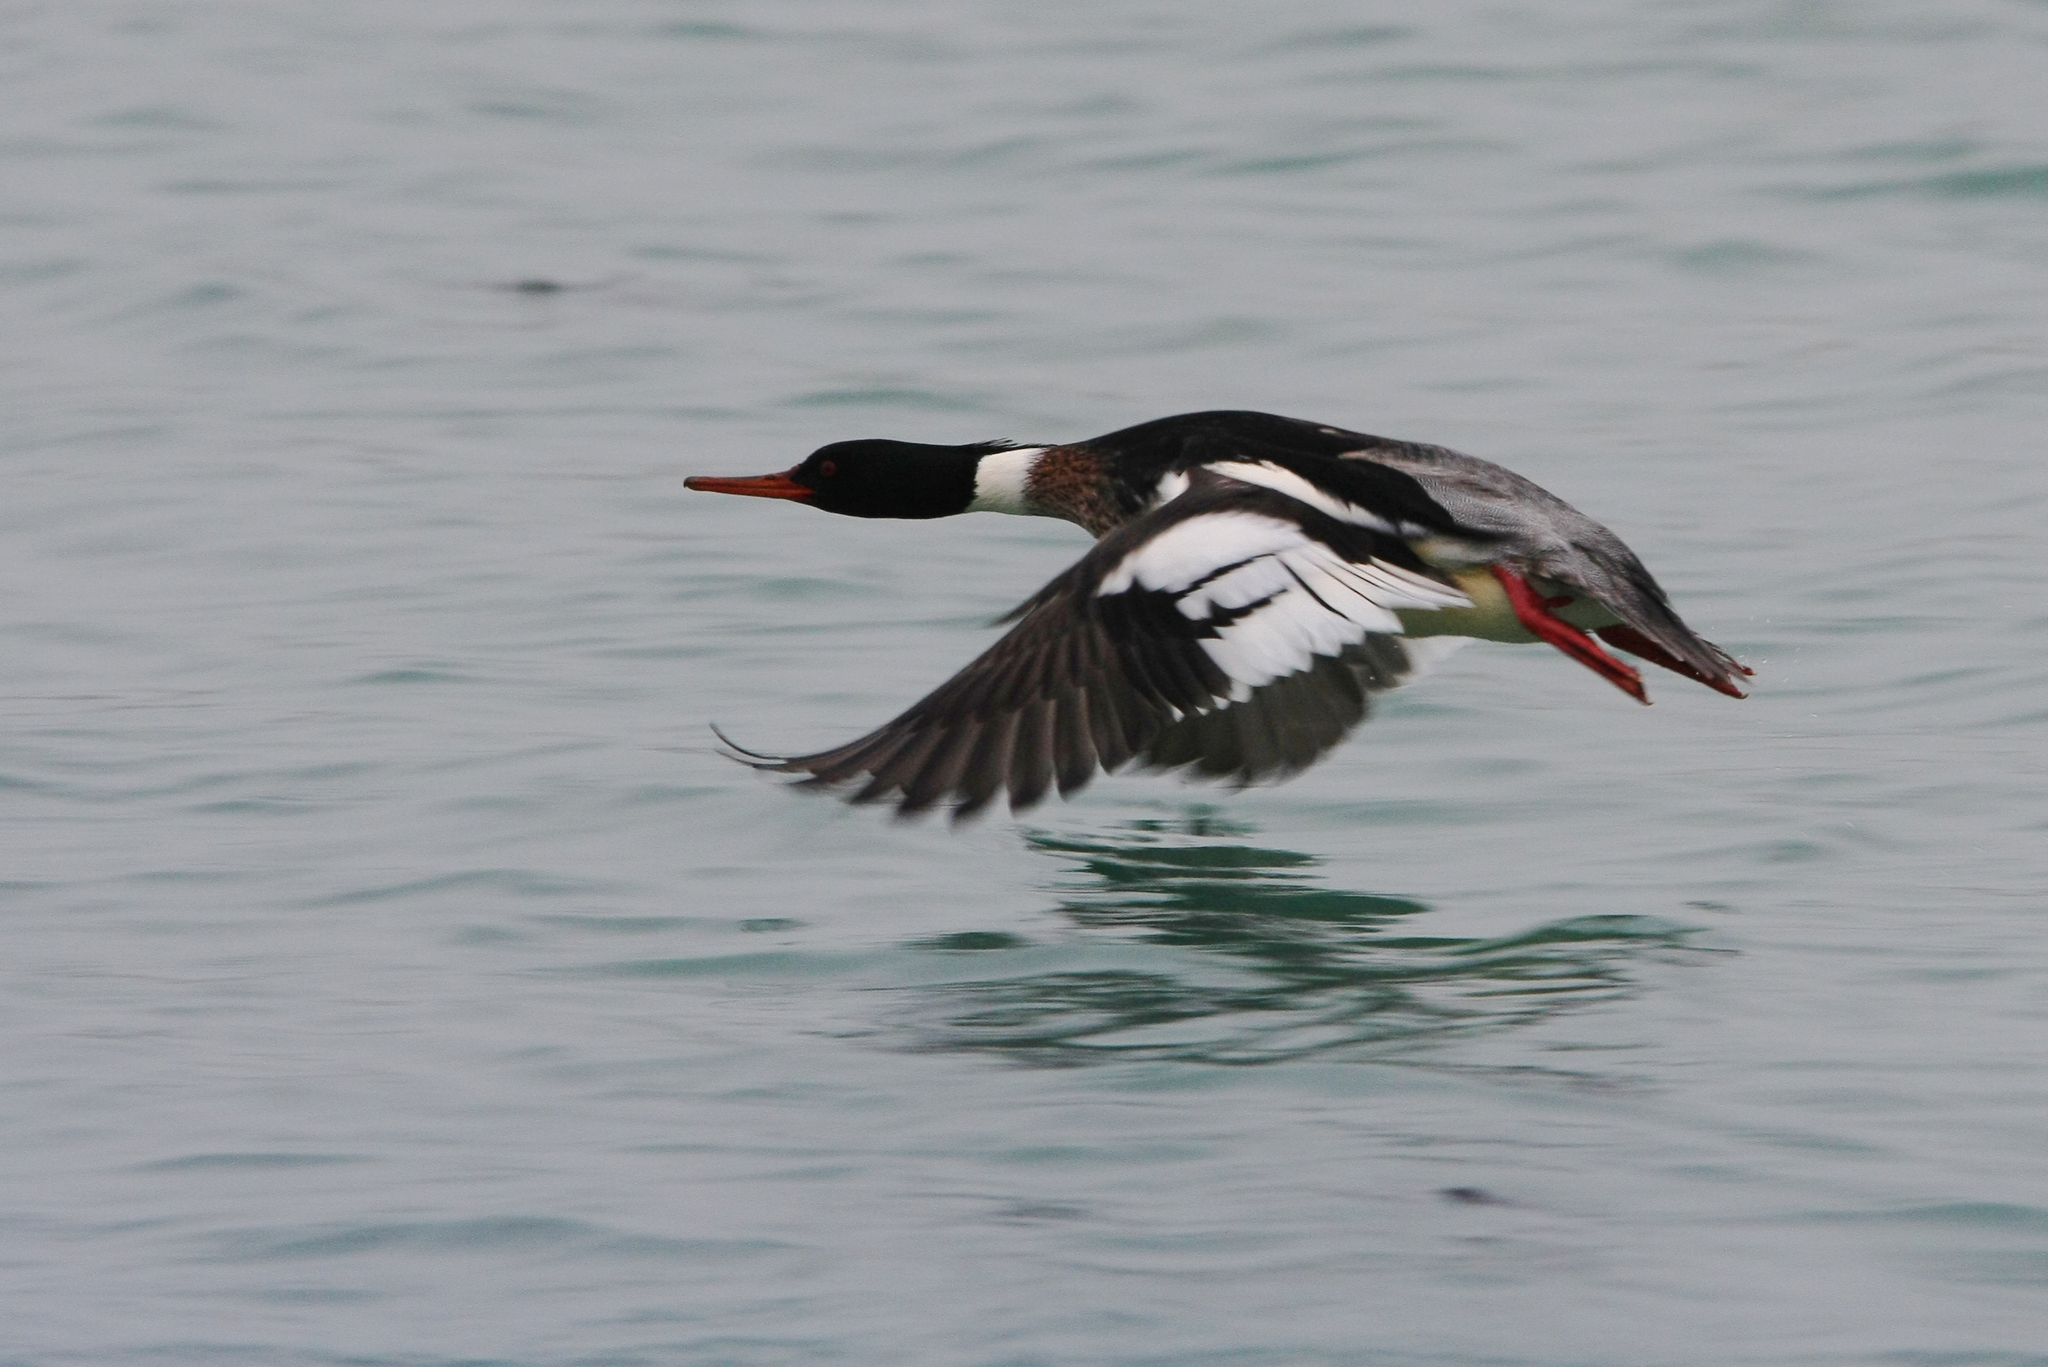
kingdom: Animalia
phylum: Chordata
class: Aves
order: Anseriformes
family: Anatidae
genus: Mergus
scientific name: Mergus serrator
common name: Red-breasted merganser
